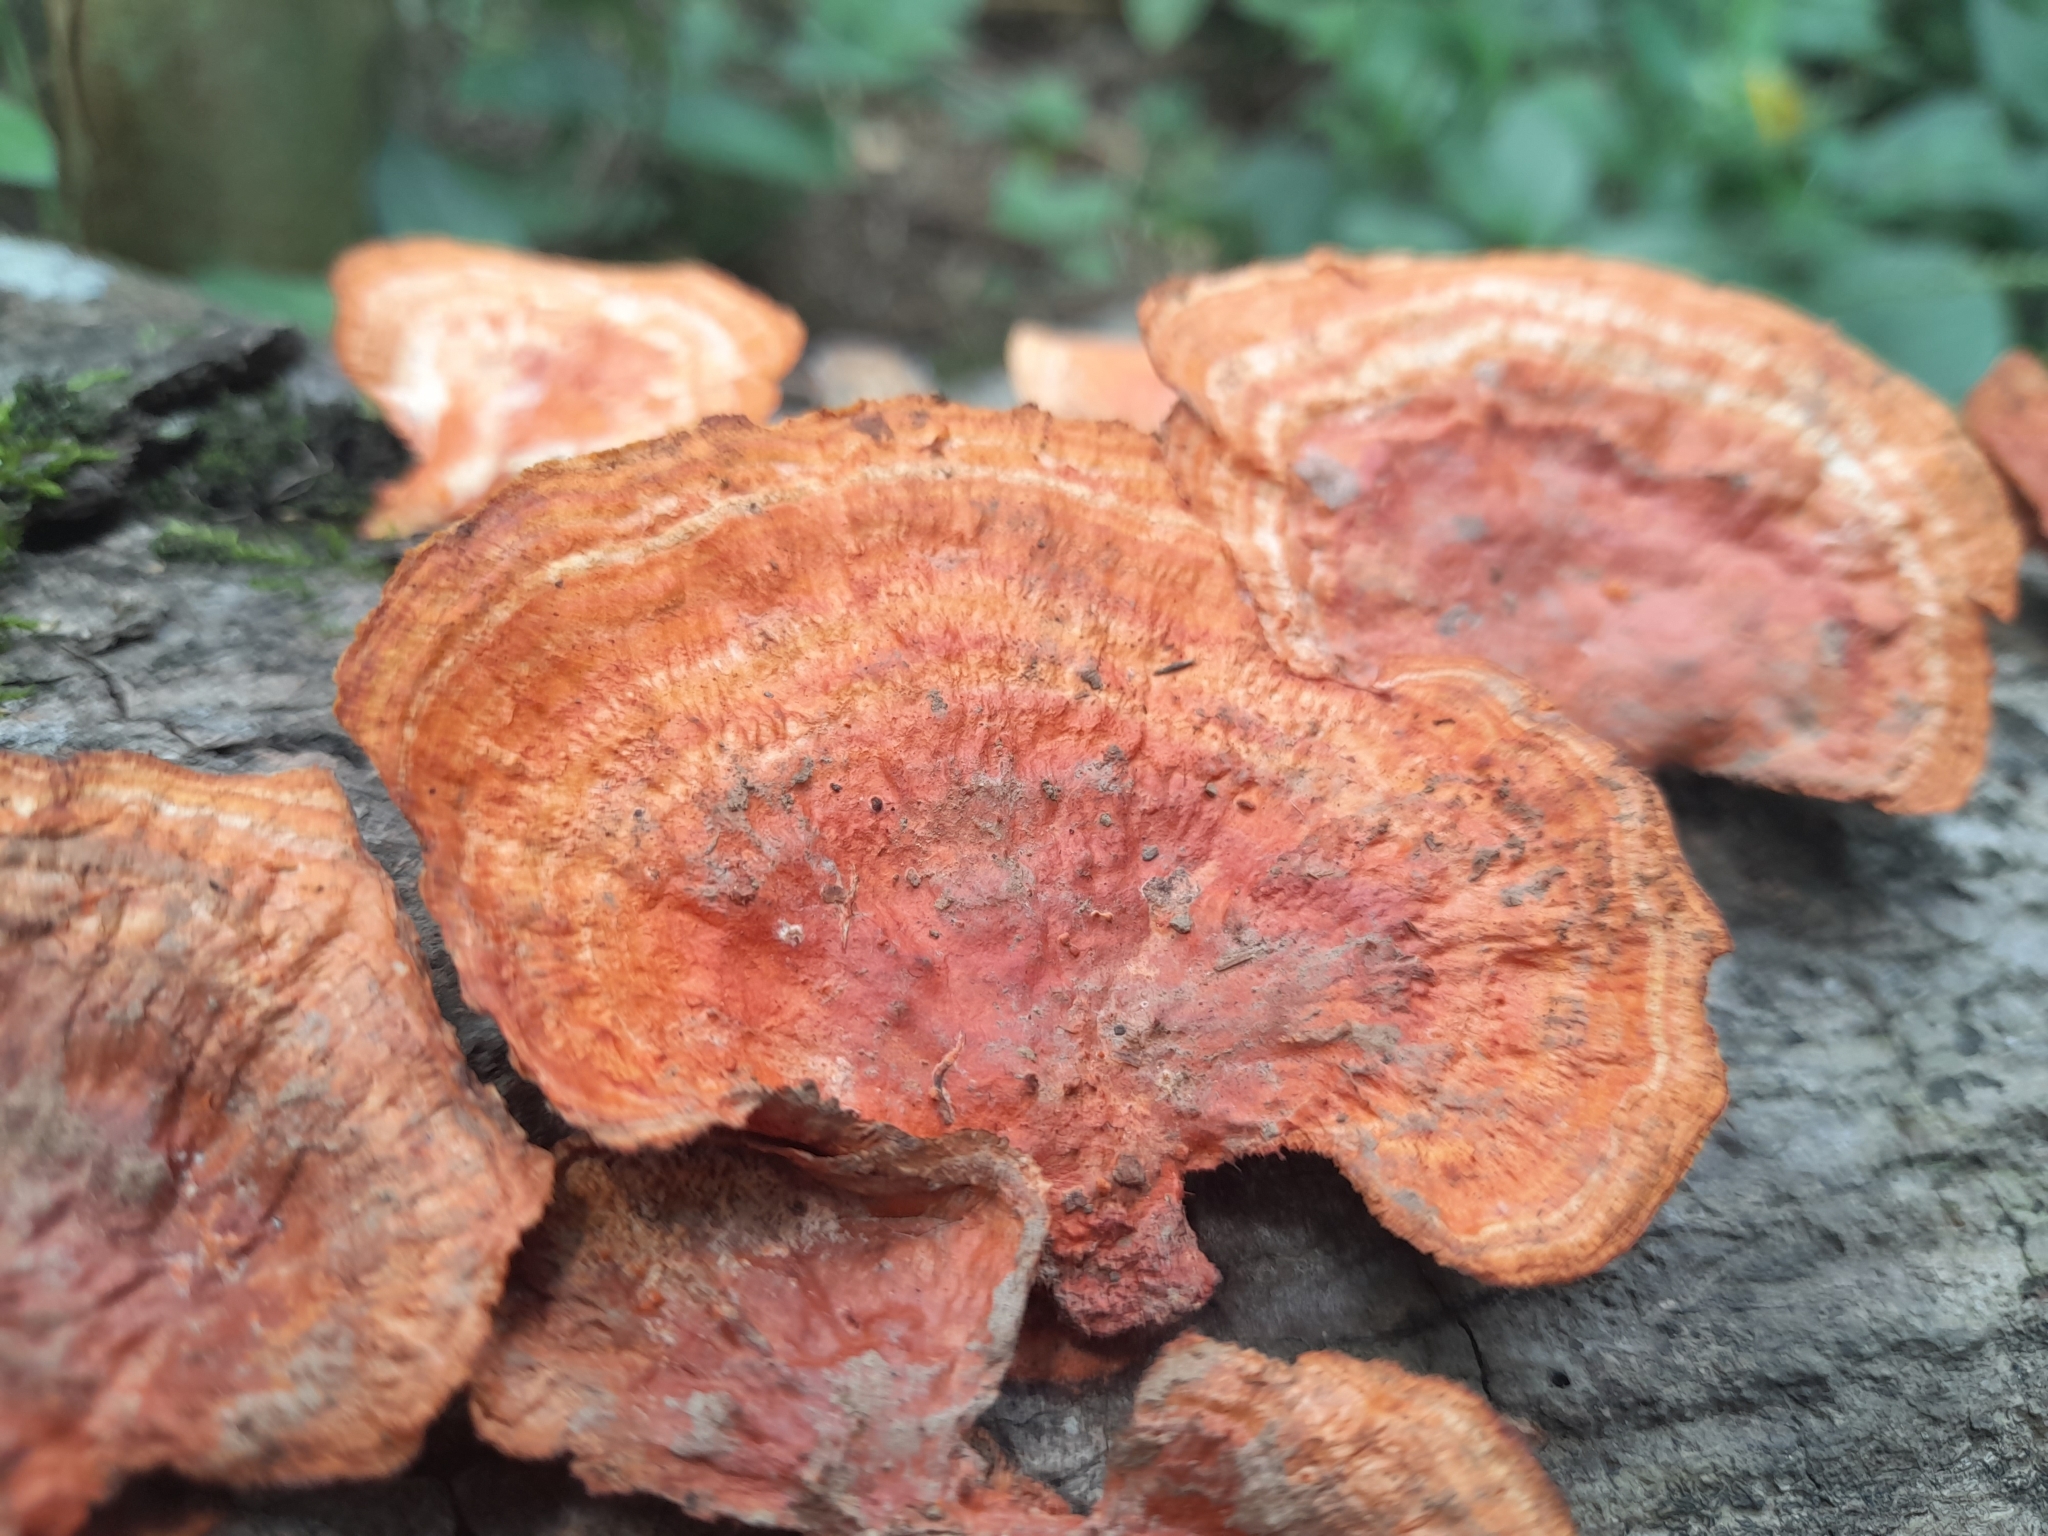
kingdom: Fungi
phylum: Basidiomycota
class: Agaricomycetes
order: Polyporales
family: Polyporaceae
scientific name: Polyporaceae
